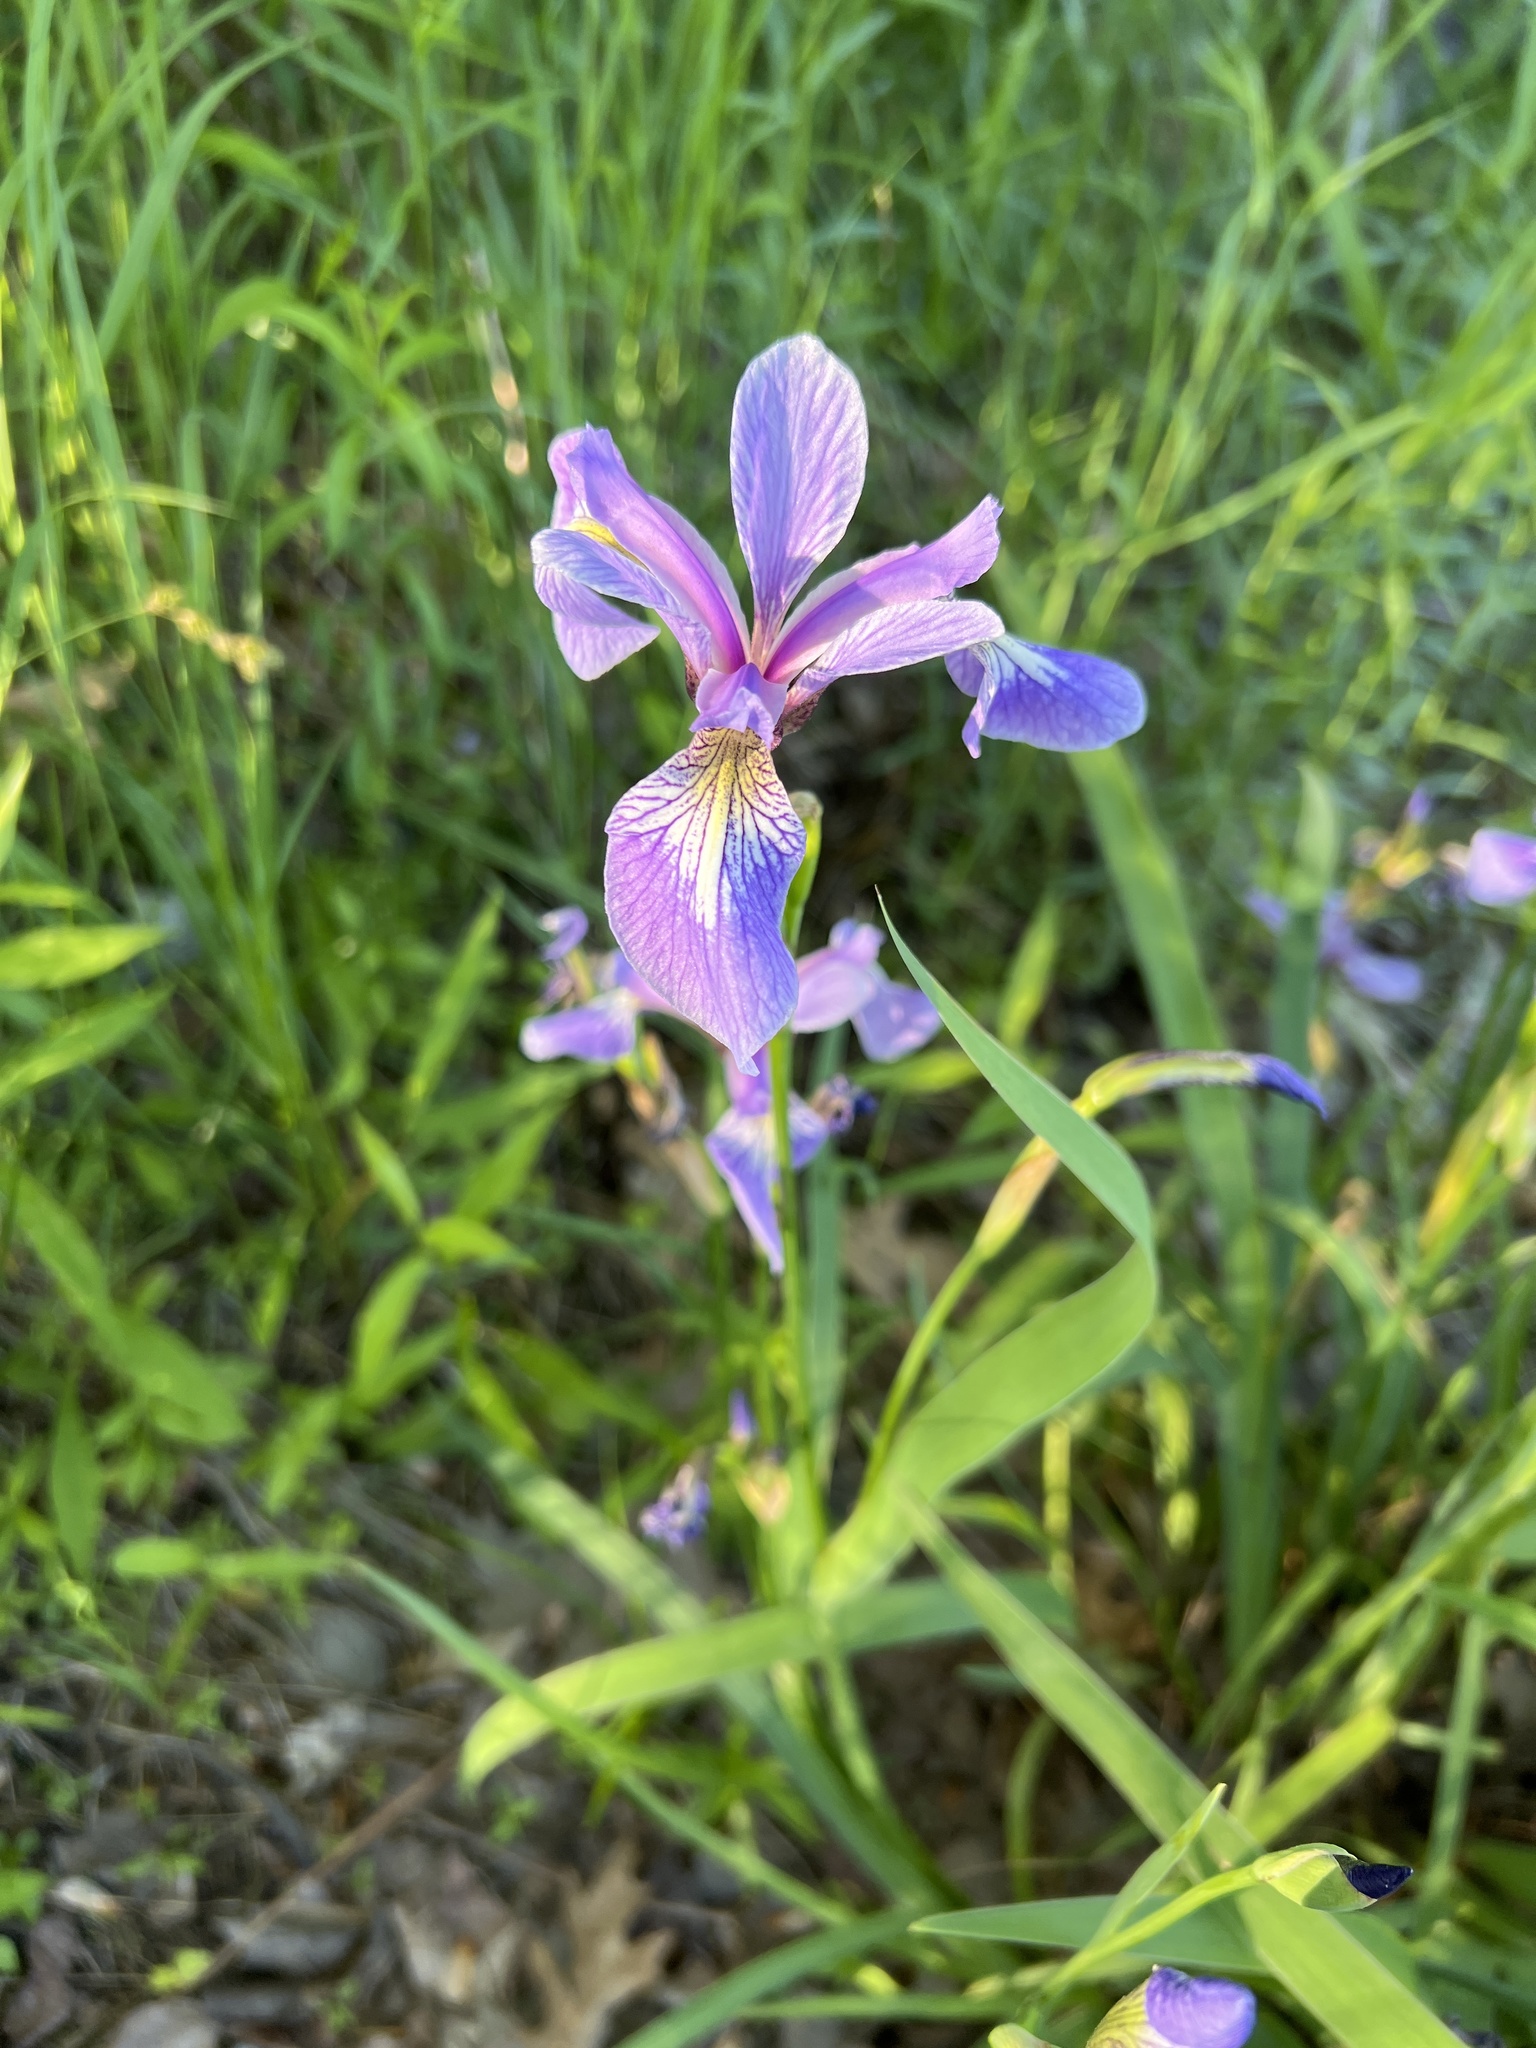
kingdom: Plantae
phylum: Tracheophyta
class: Liliopsida
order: Asparagales
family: Iridaceae
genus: Iris
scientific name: Iris versicolor
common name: Purple iris
